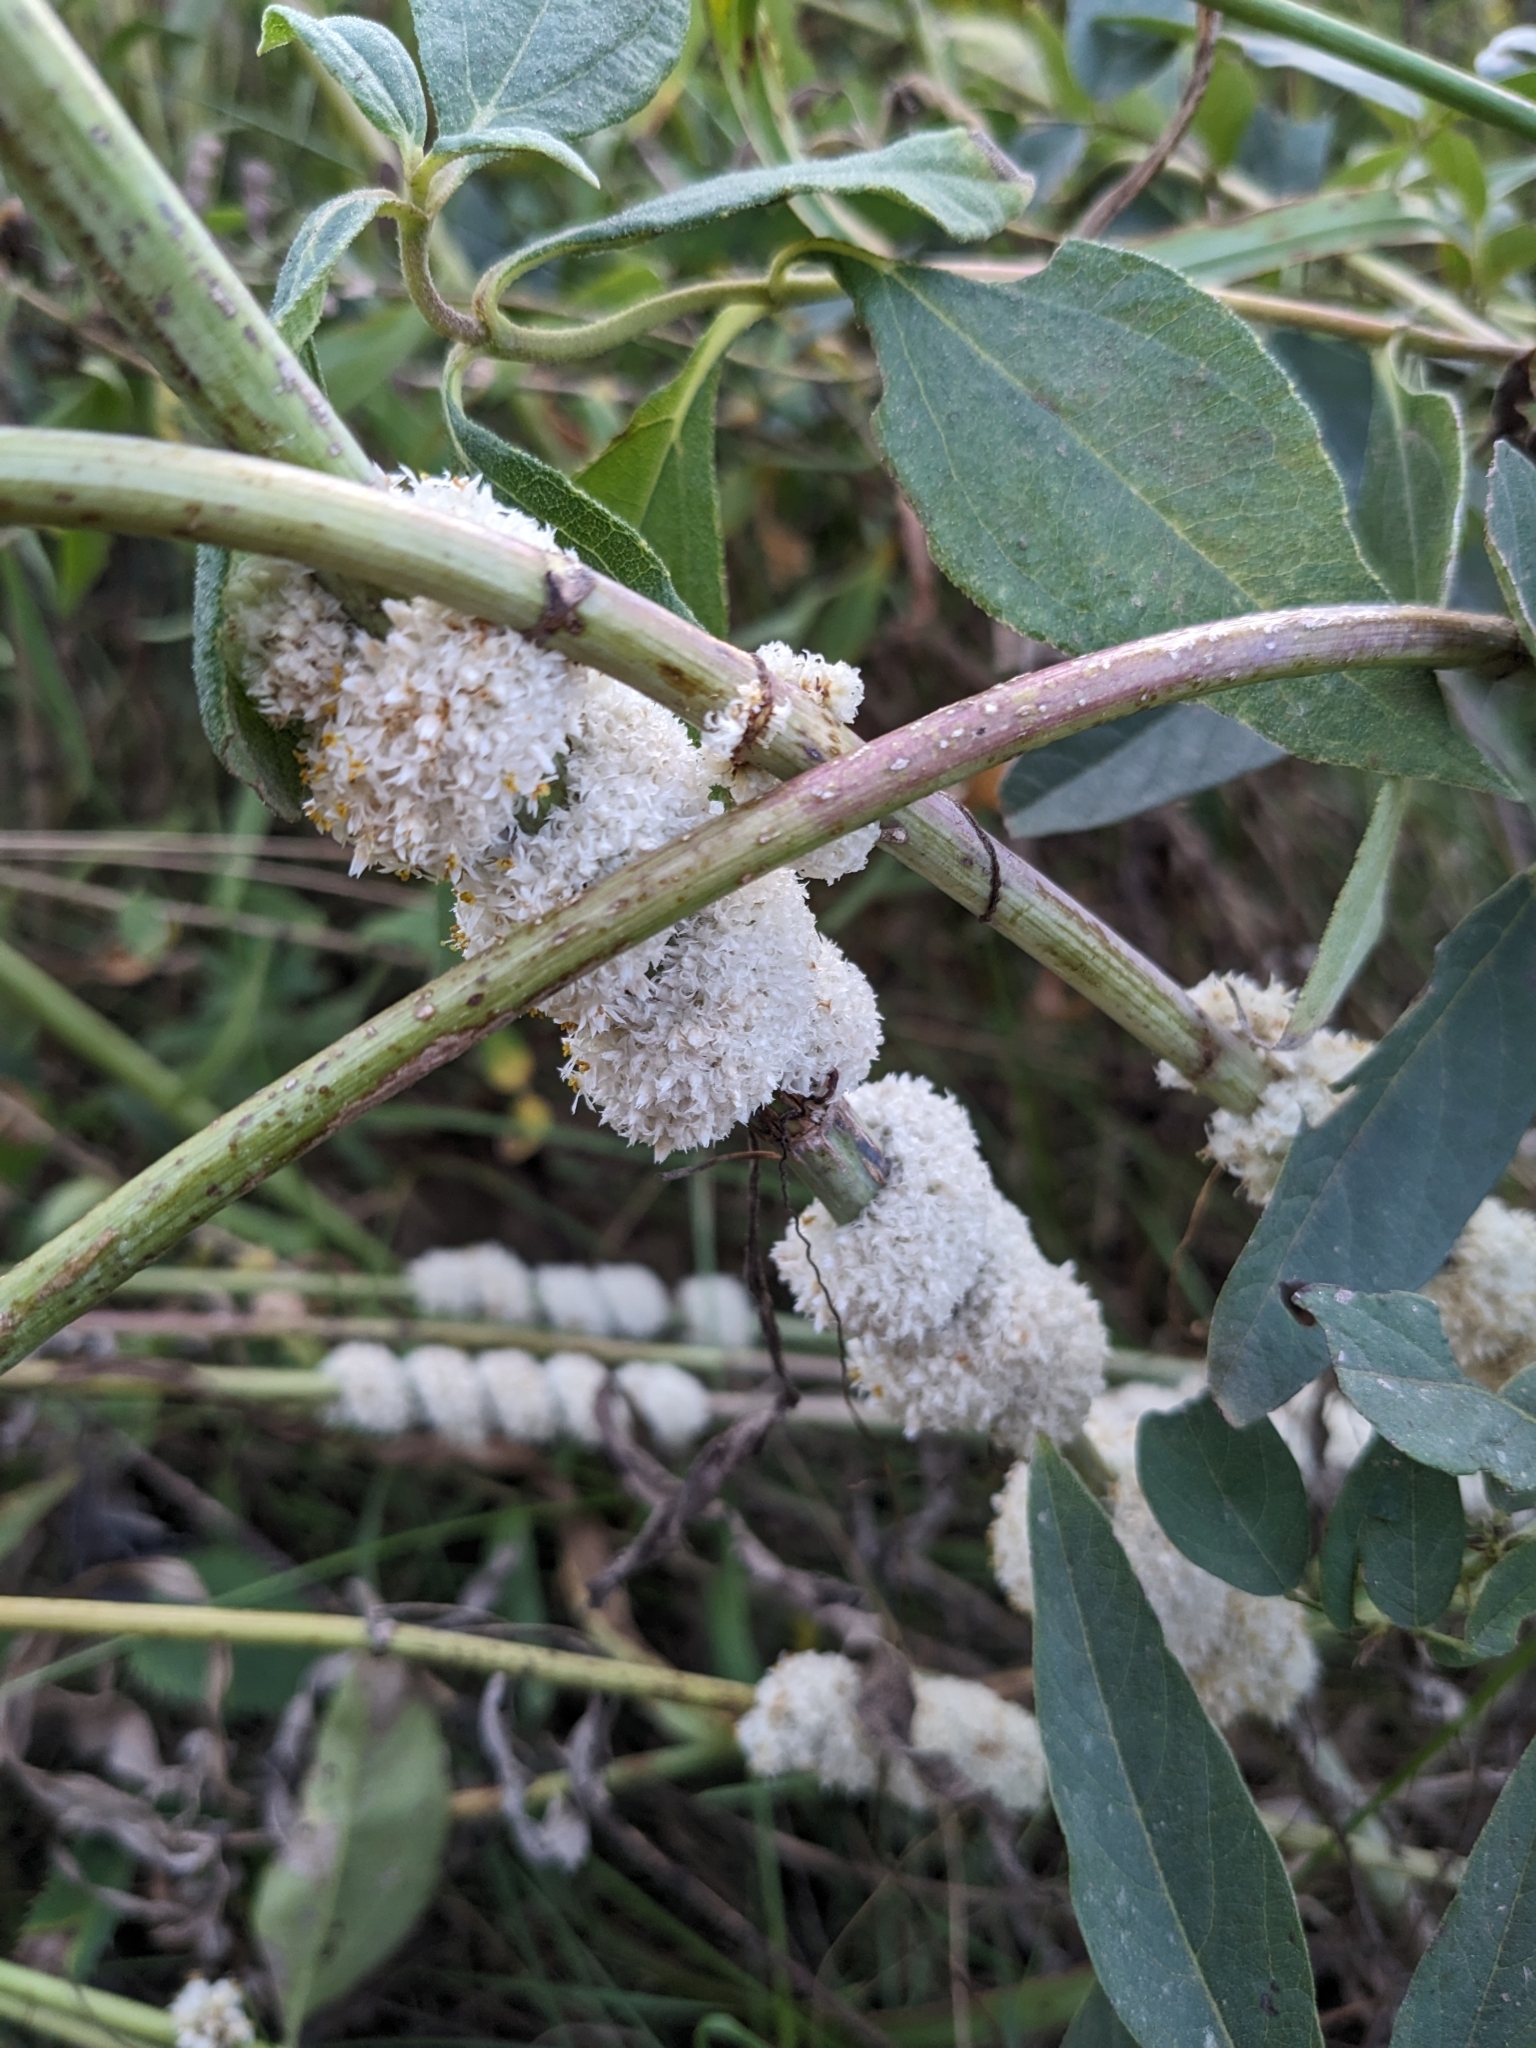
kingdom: Plantae
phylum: Tracheophyta
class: Magnoliopsida
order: Solanales
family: Convolvulaceae
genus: Cuscuta
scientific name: Cuscuta glomerata
